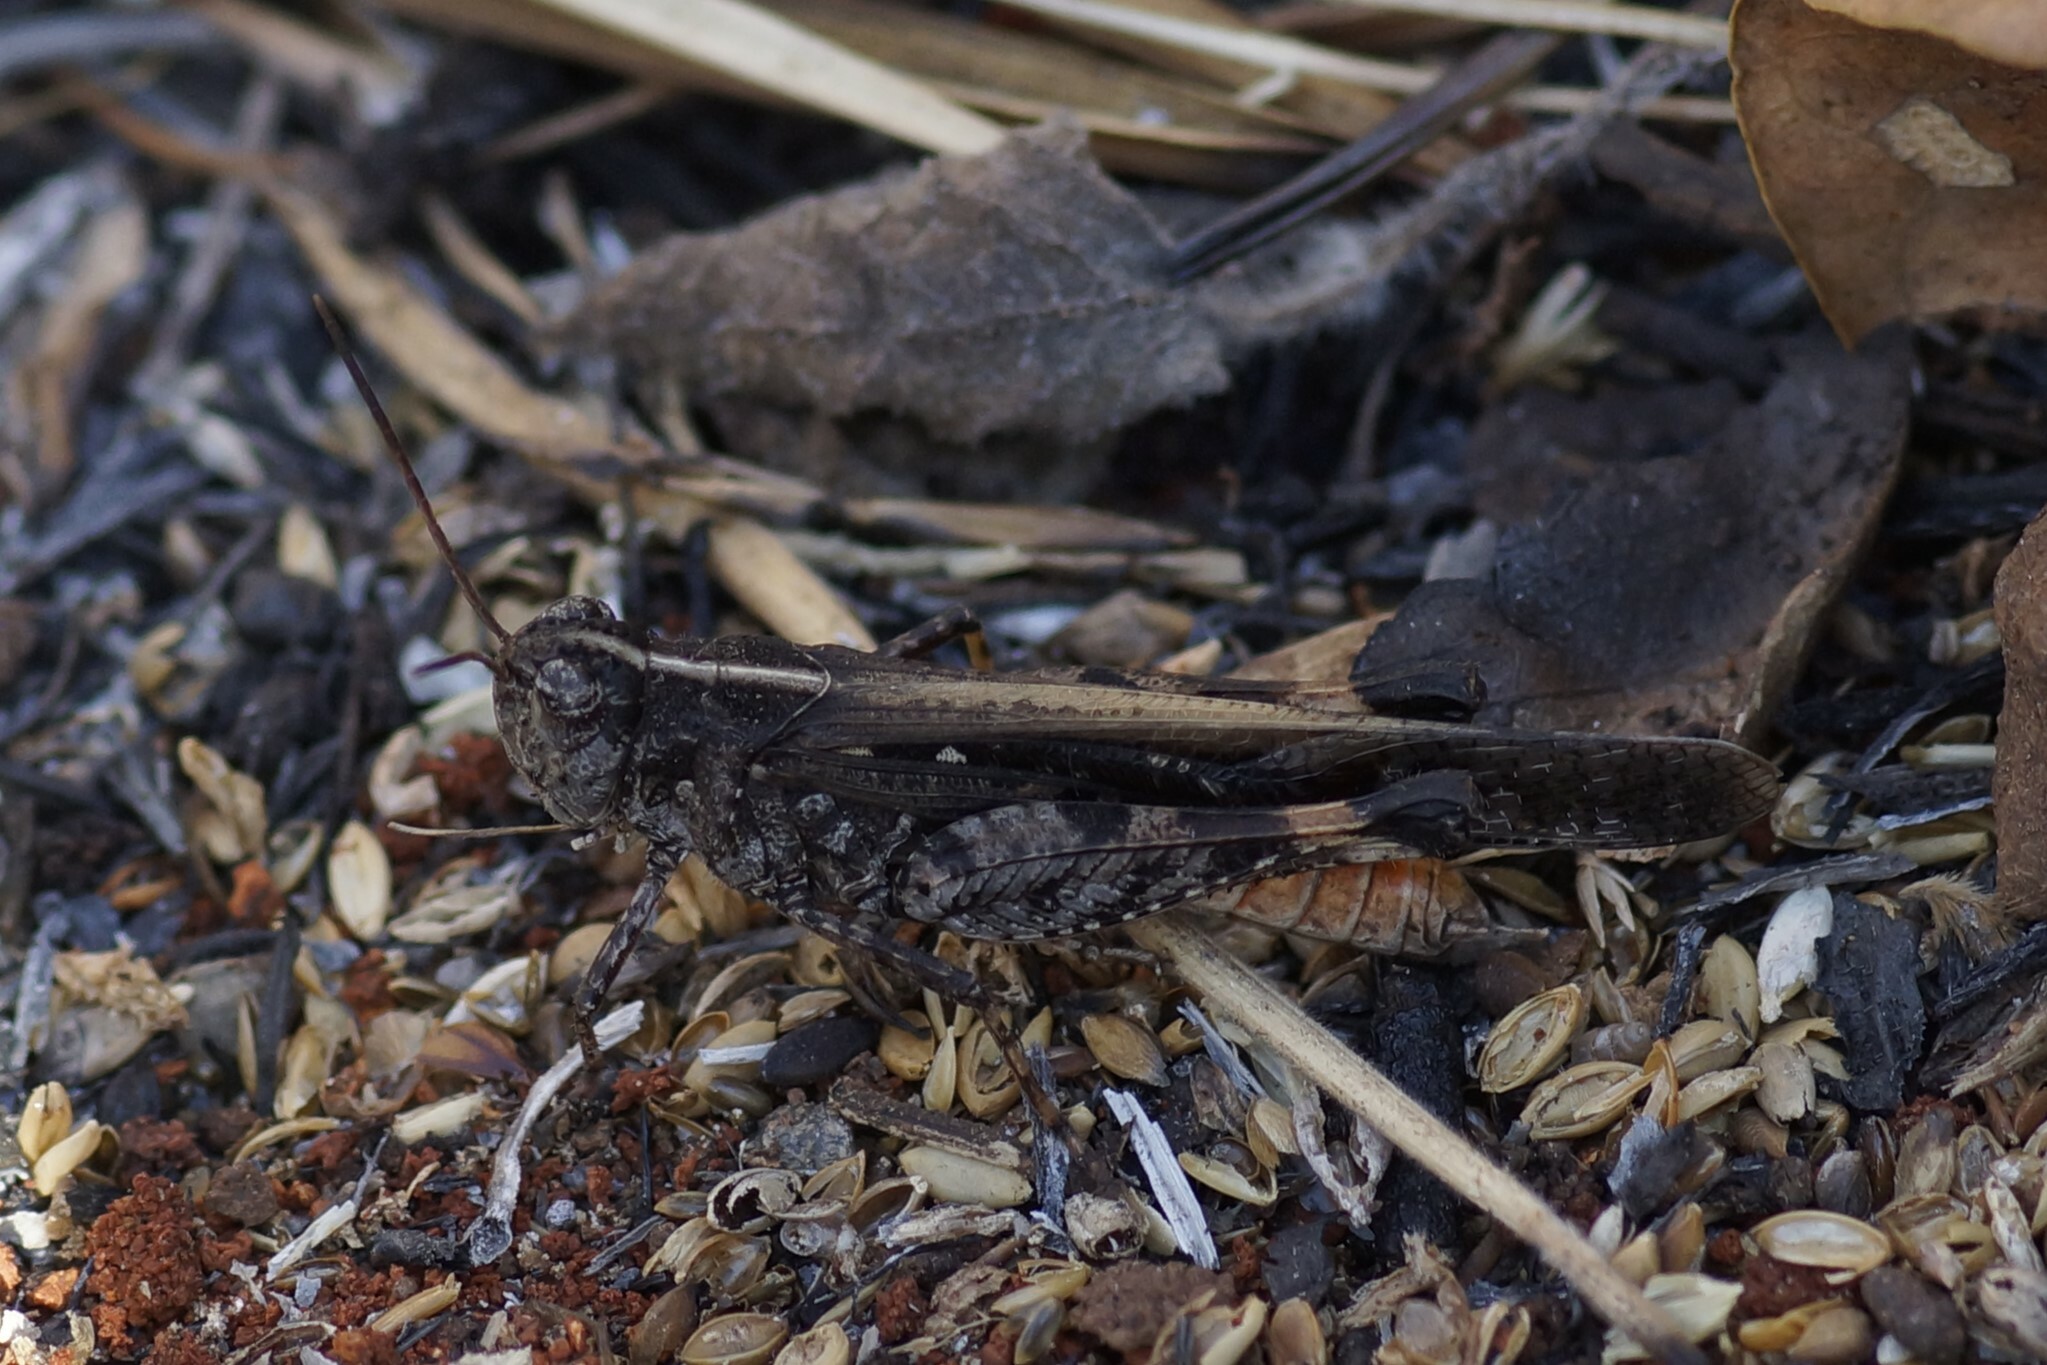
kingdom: Animalia
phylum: Arthropoda
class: Insecta
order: Orthoptera
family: Acrididae
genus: Heteropternis
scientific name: Heteropternis obscurella
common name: Long-legged bandwing
